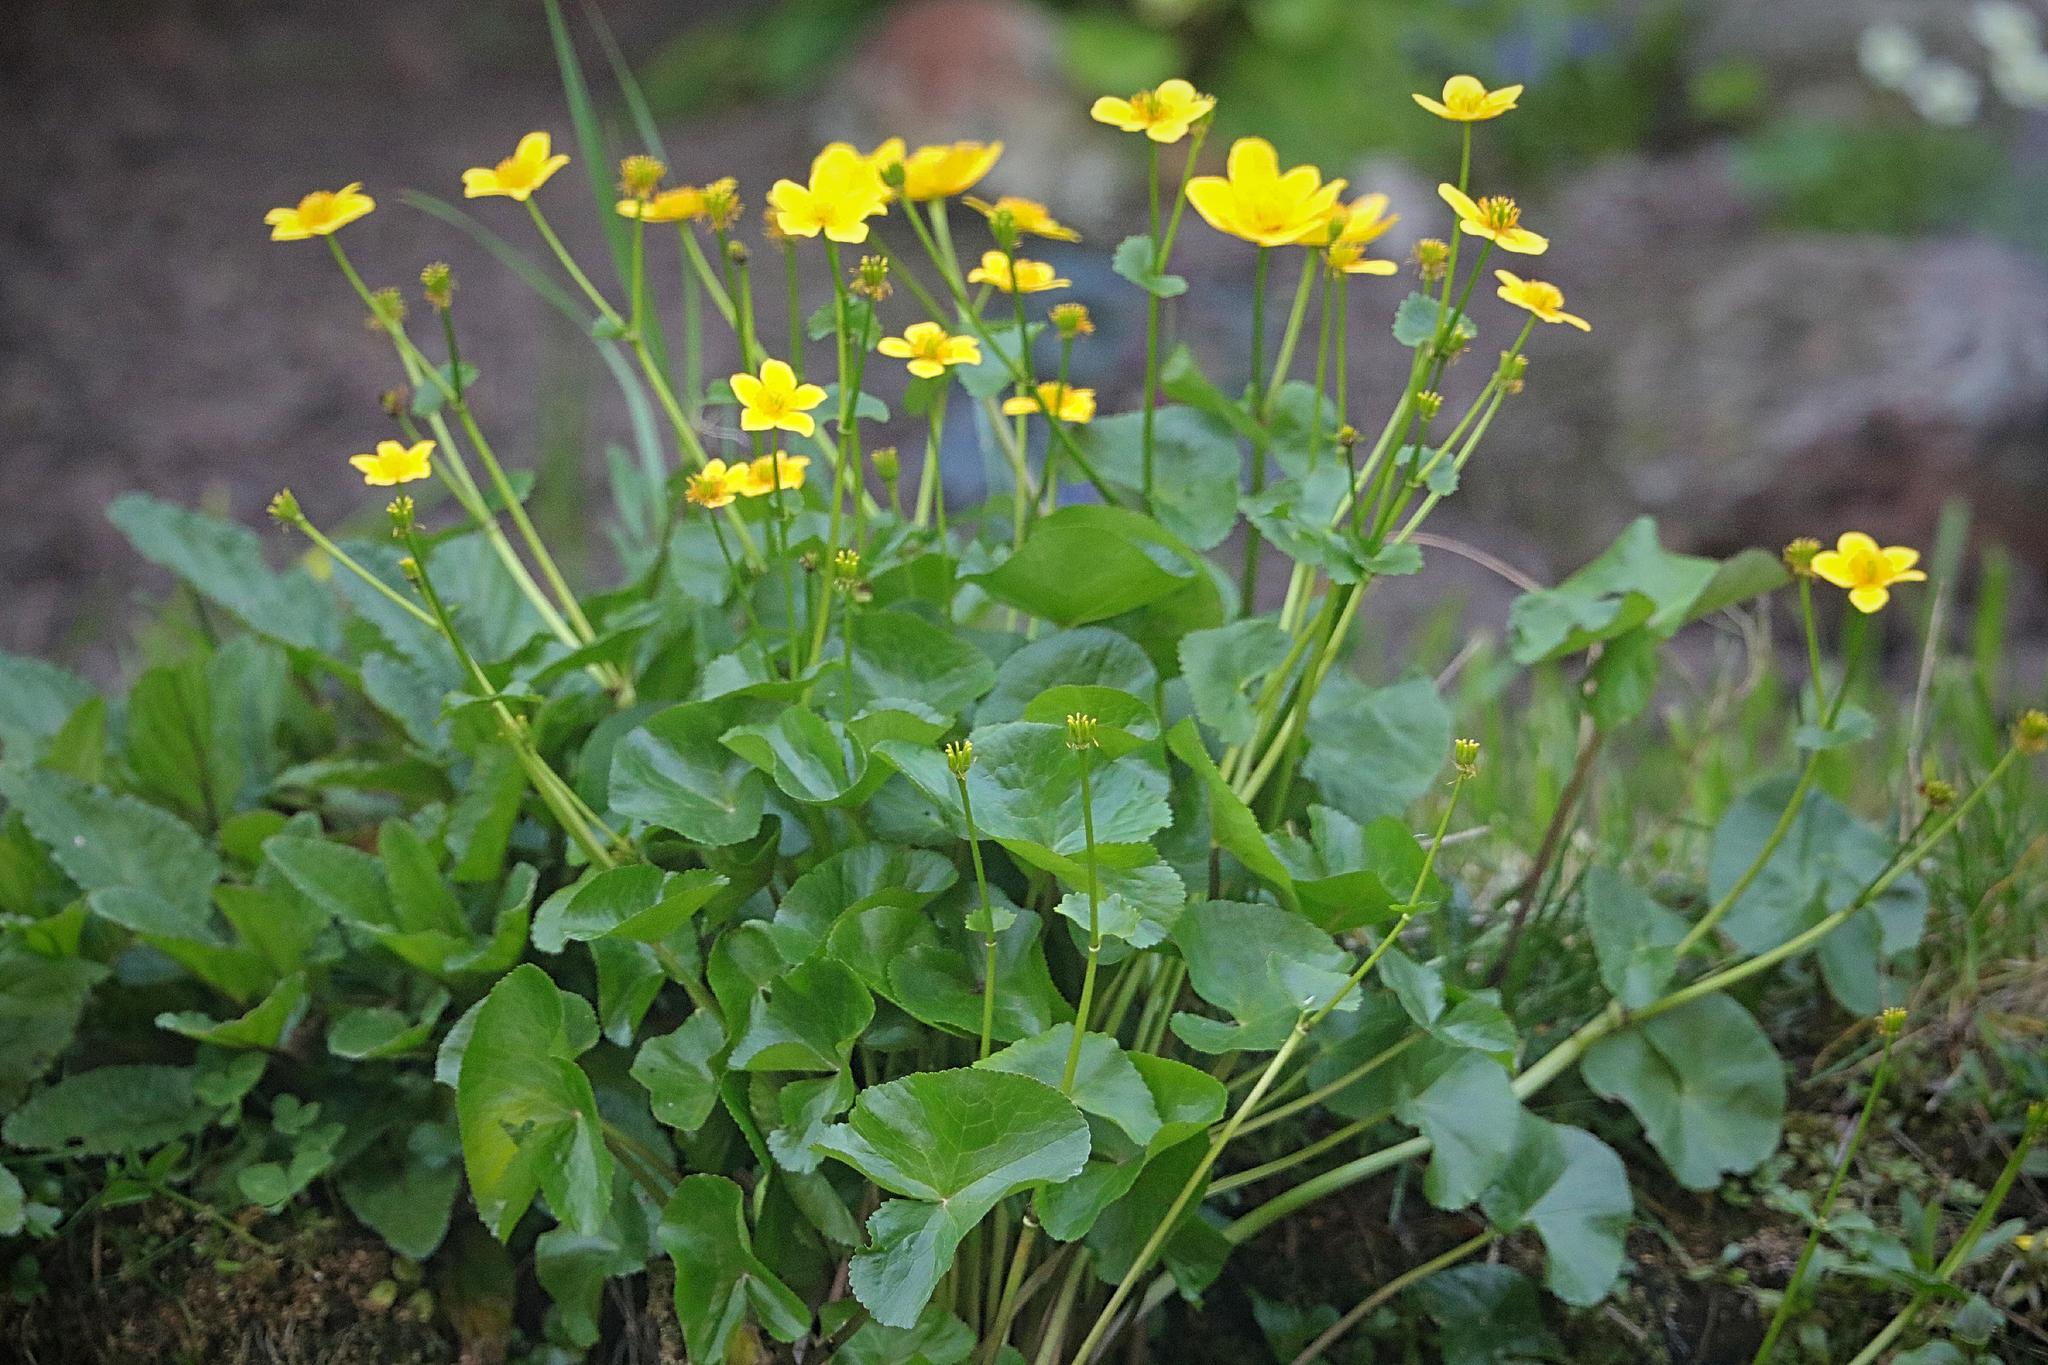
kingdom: Plantae
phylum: Tracheophyta
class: Magnoliopsida
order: Ranunculales
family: Ranunculaceae
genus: Caltha
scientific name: Caltha palustris
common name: Marsh marigold
